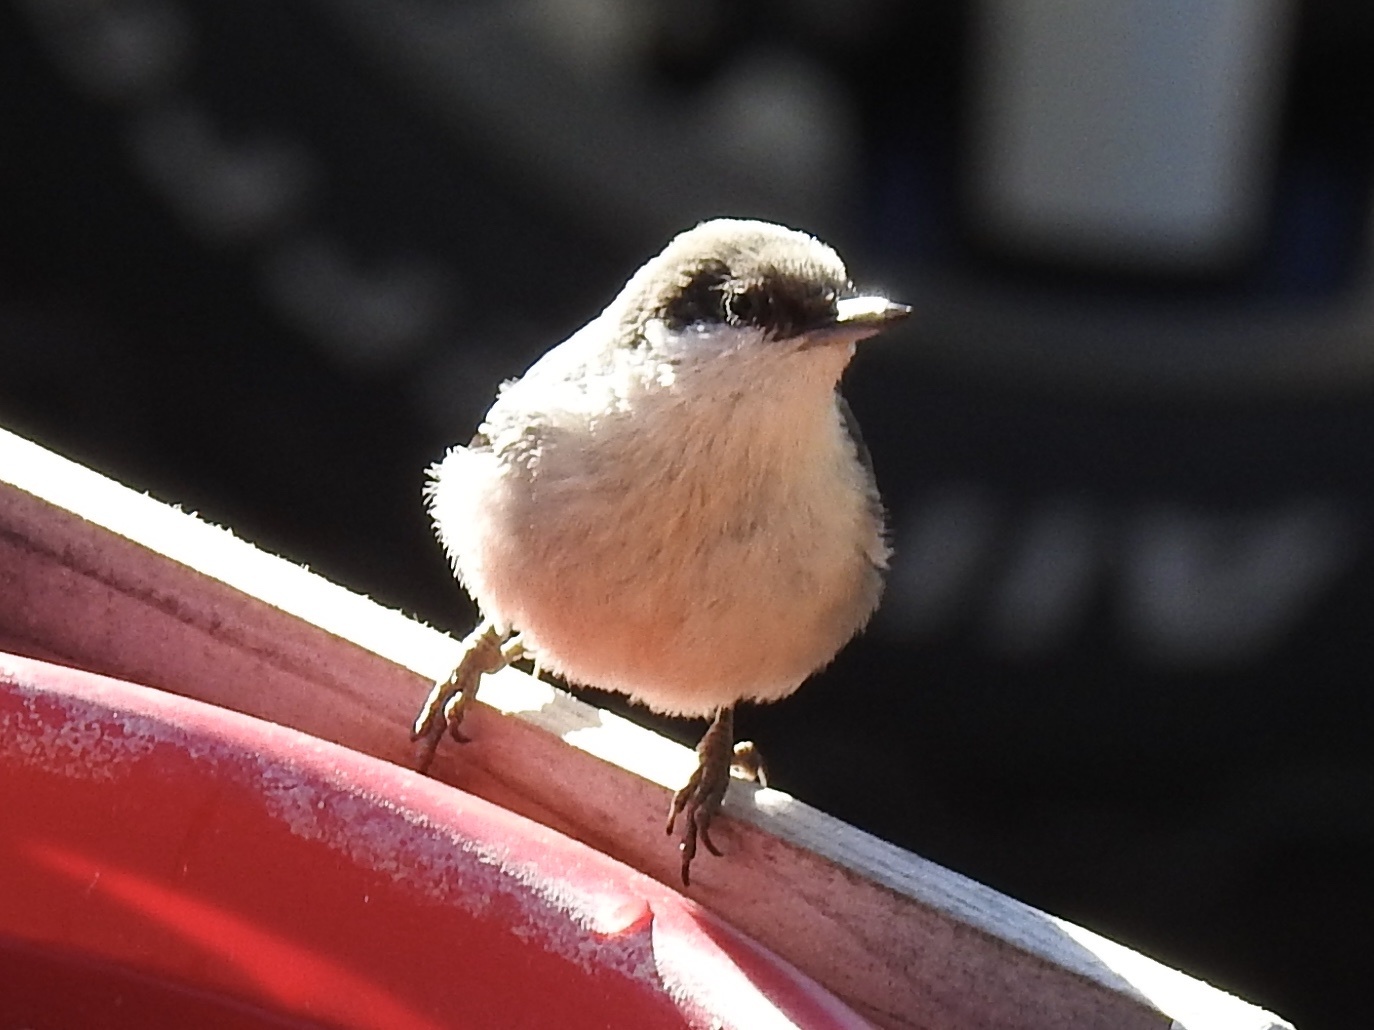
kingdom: Animalia
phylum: Chordata
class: Aves
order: Passeriformes
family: Sittidae
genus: Sitta
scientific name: Sitta pygmaea
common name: Pygmy nuthatch
